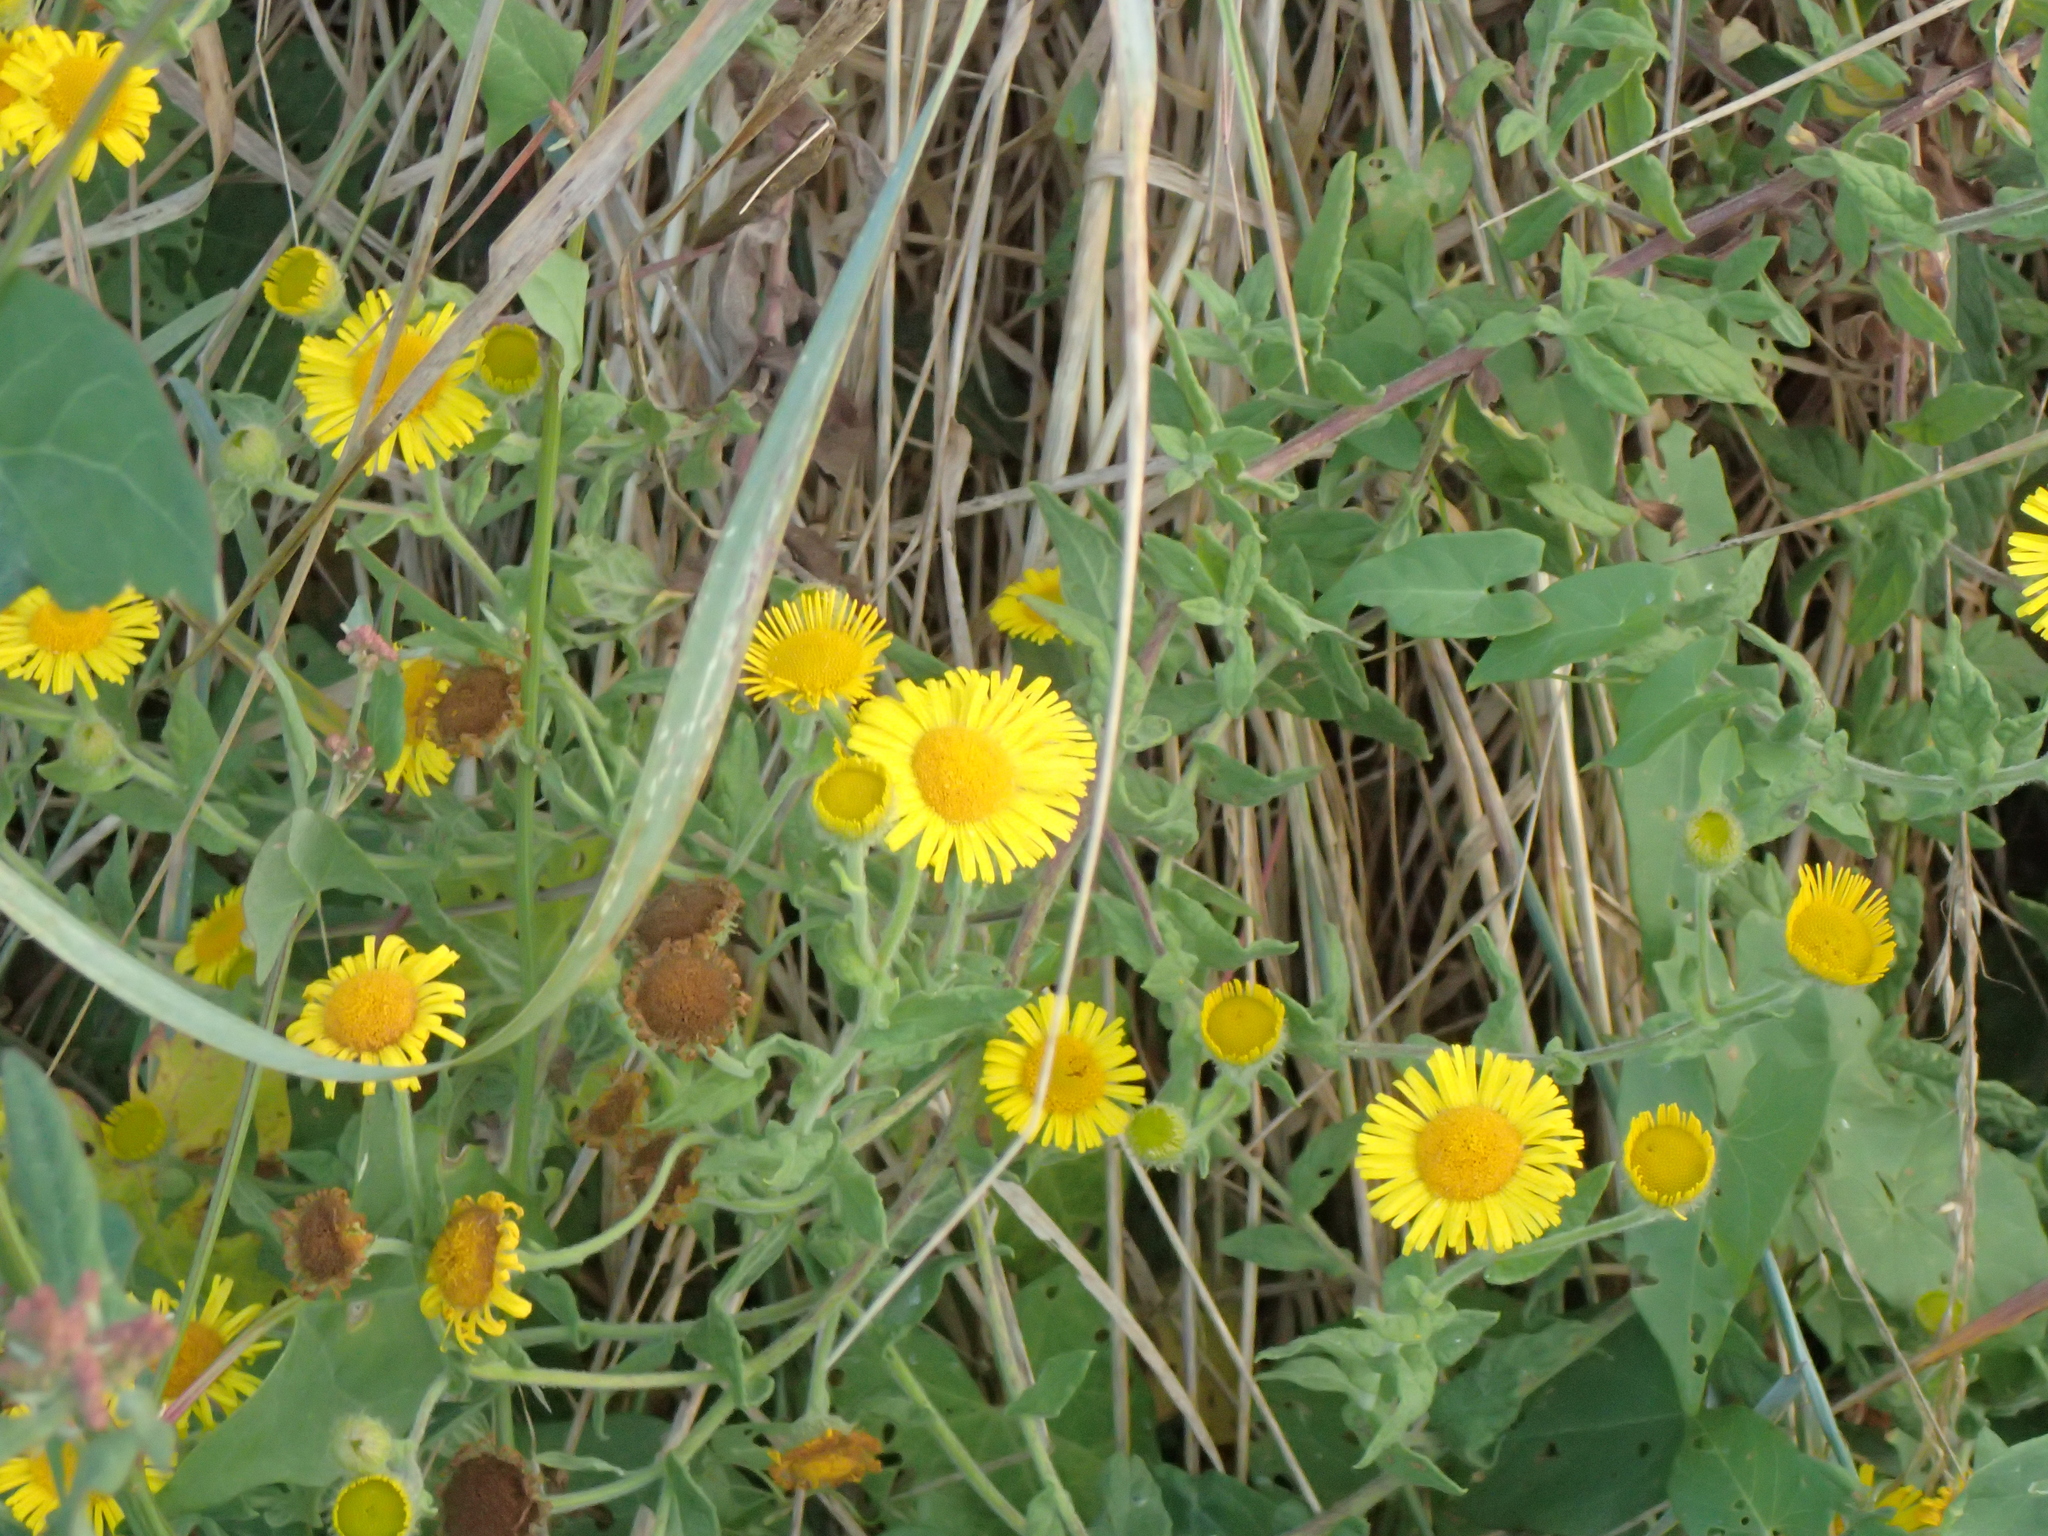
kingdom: Plantae
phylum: Tracheophyta
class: Magnoliopsida
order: Asterales
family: Asteraceae
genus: Pulicaria
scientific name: Pulicaria dysenterica
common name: Common fleabane
